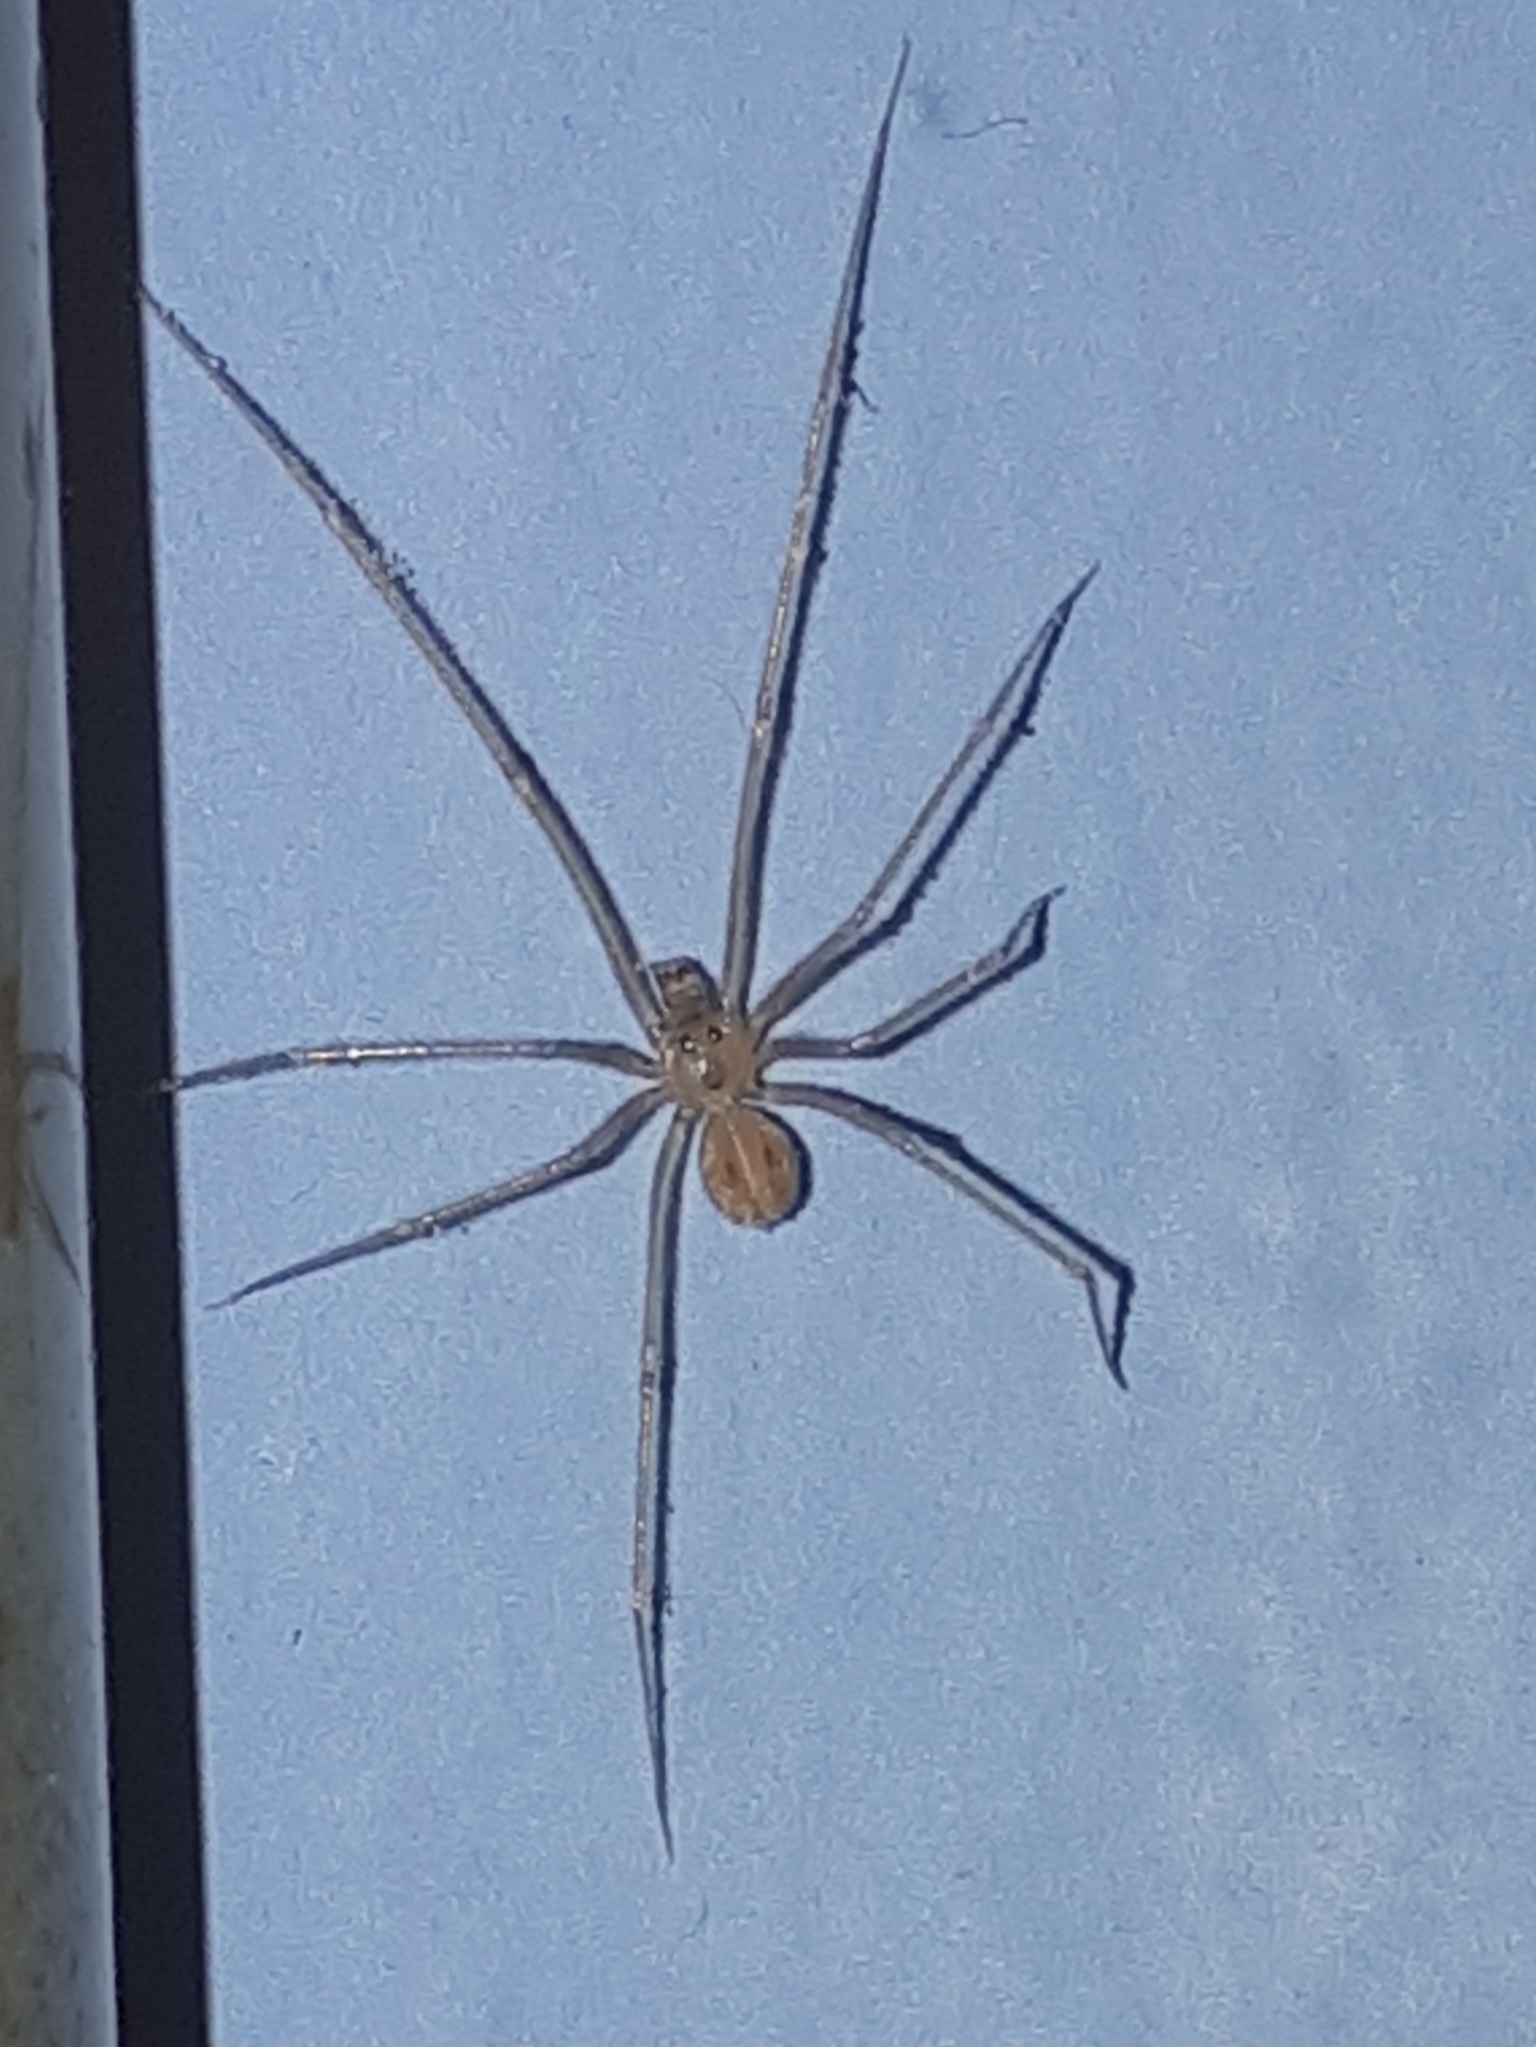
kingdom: Animalia
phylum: Arthropoda
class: Arachnida
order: Araneae
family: Pholcidae
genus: Spermophora
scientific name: Spermophora senoculata
